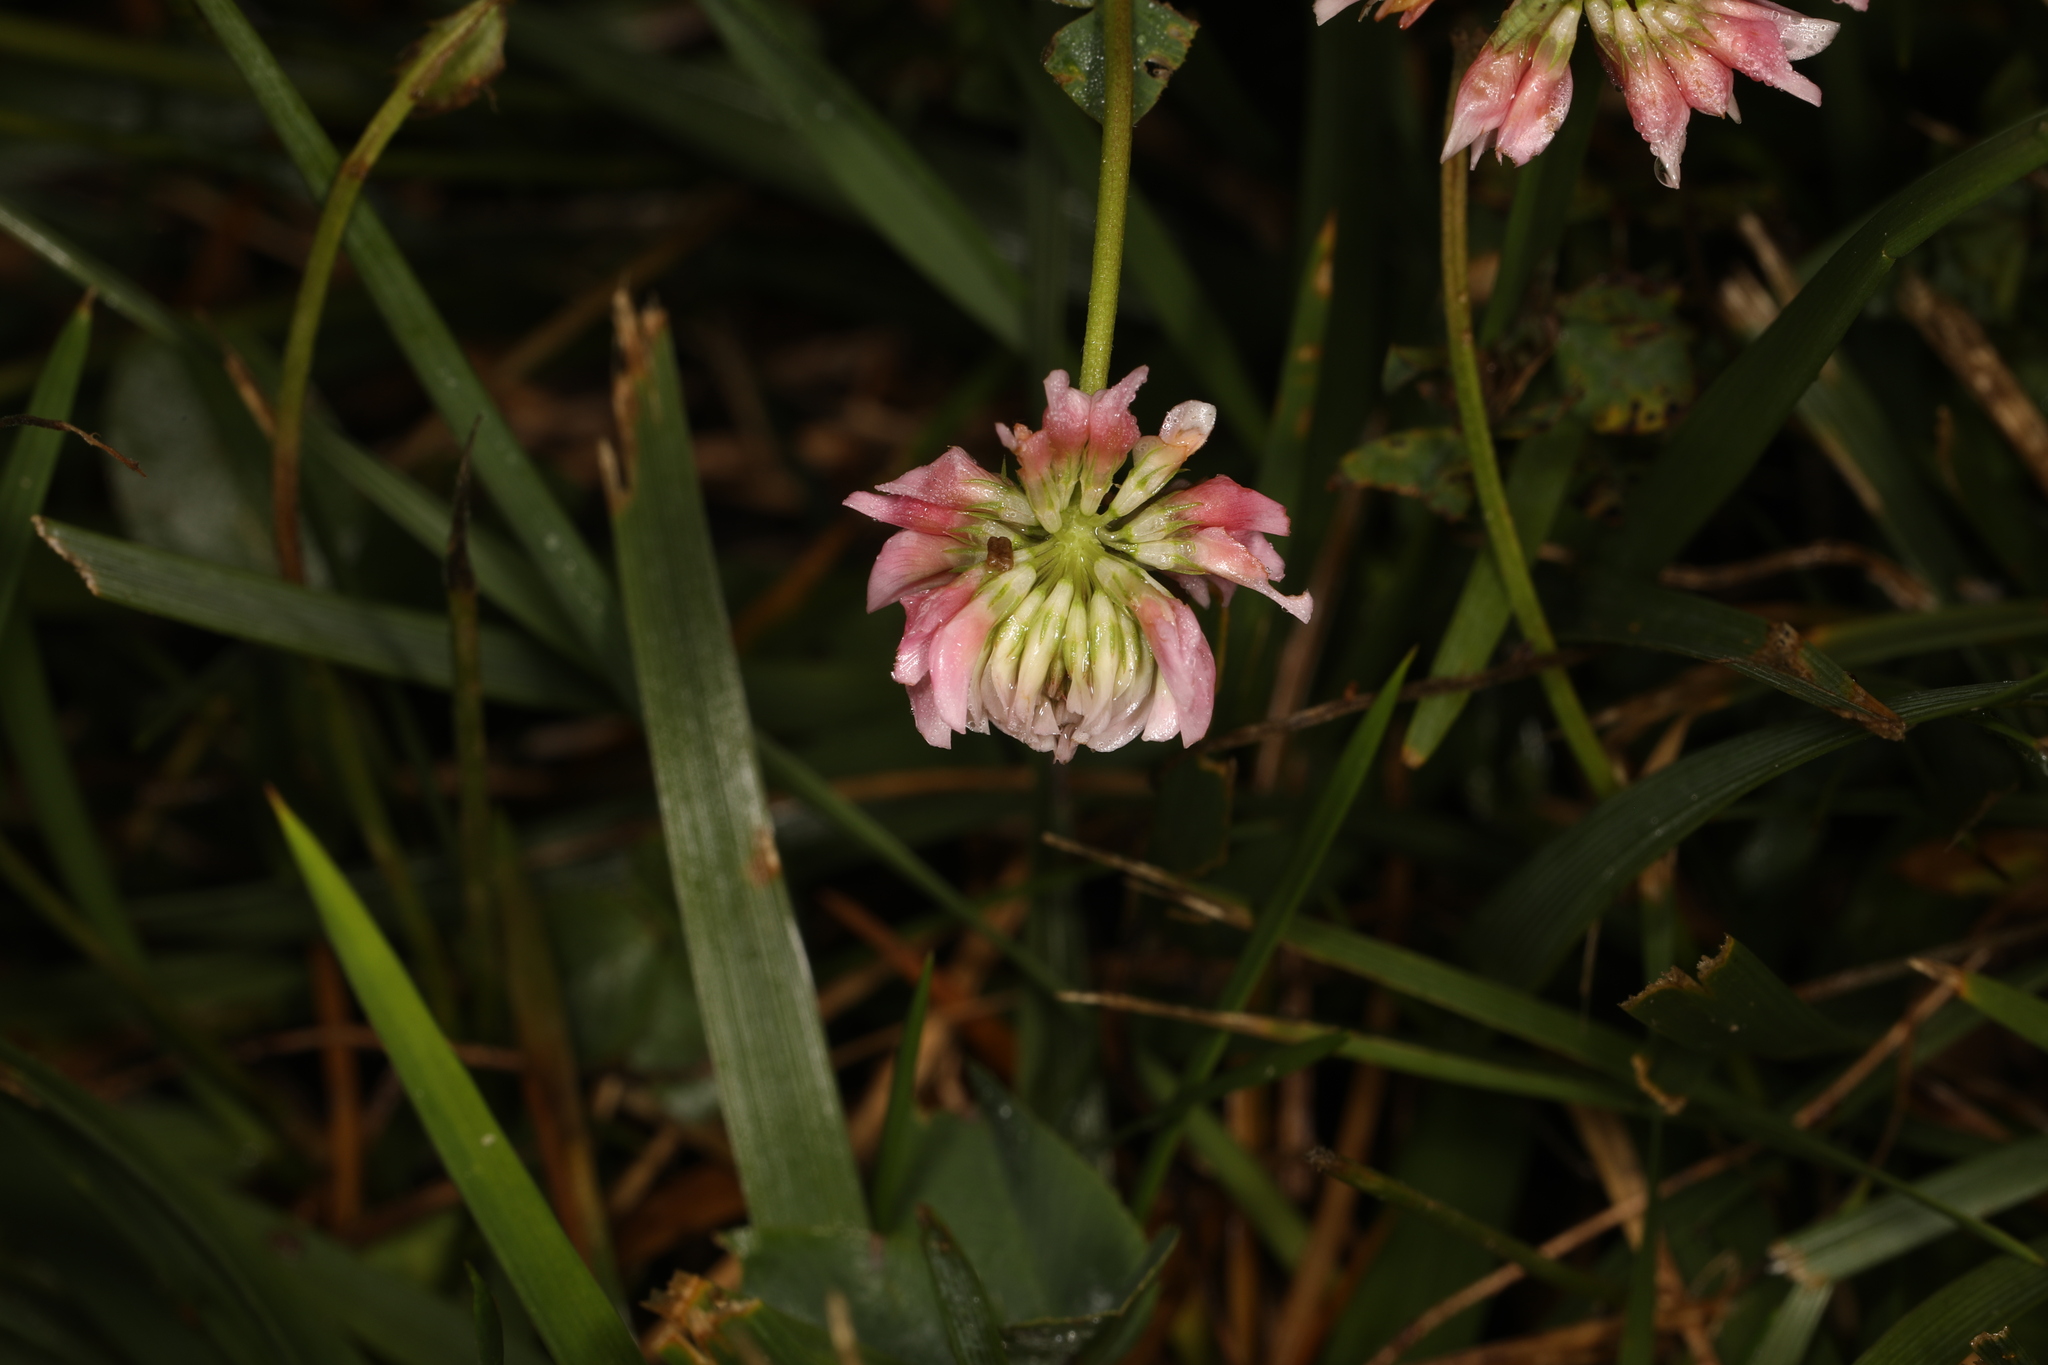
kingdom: Plantae
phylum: Tracheophyta
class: Magnoliopsida
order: Fabales
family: Fabaceae
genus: Trifolium
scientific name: Trifolium hybridum
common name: Alsike clover
